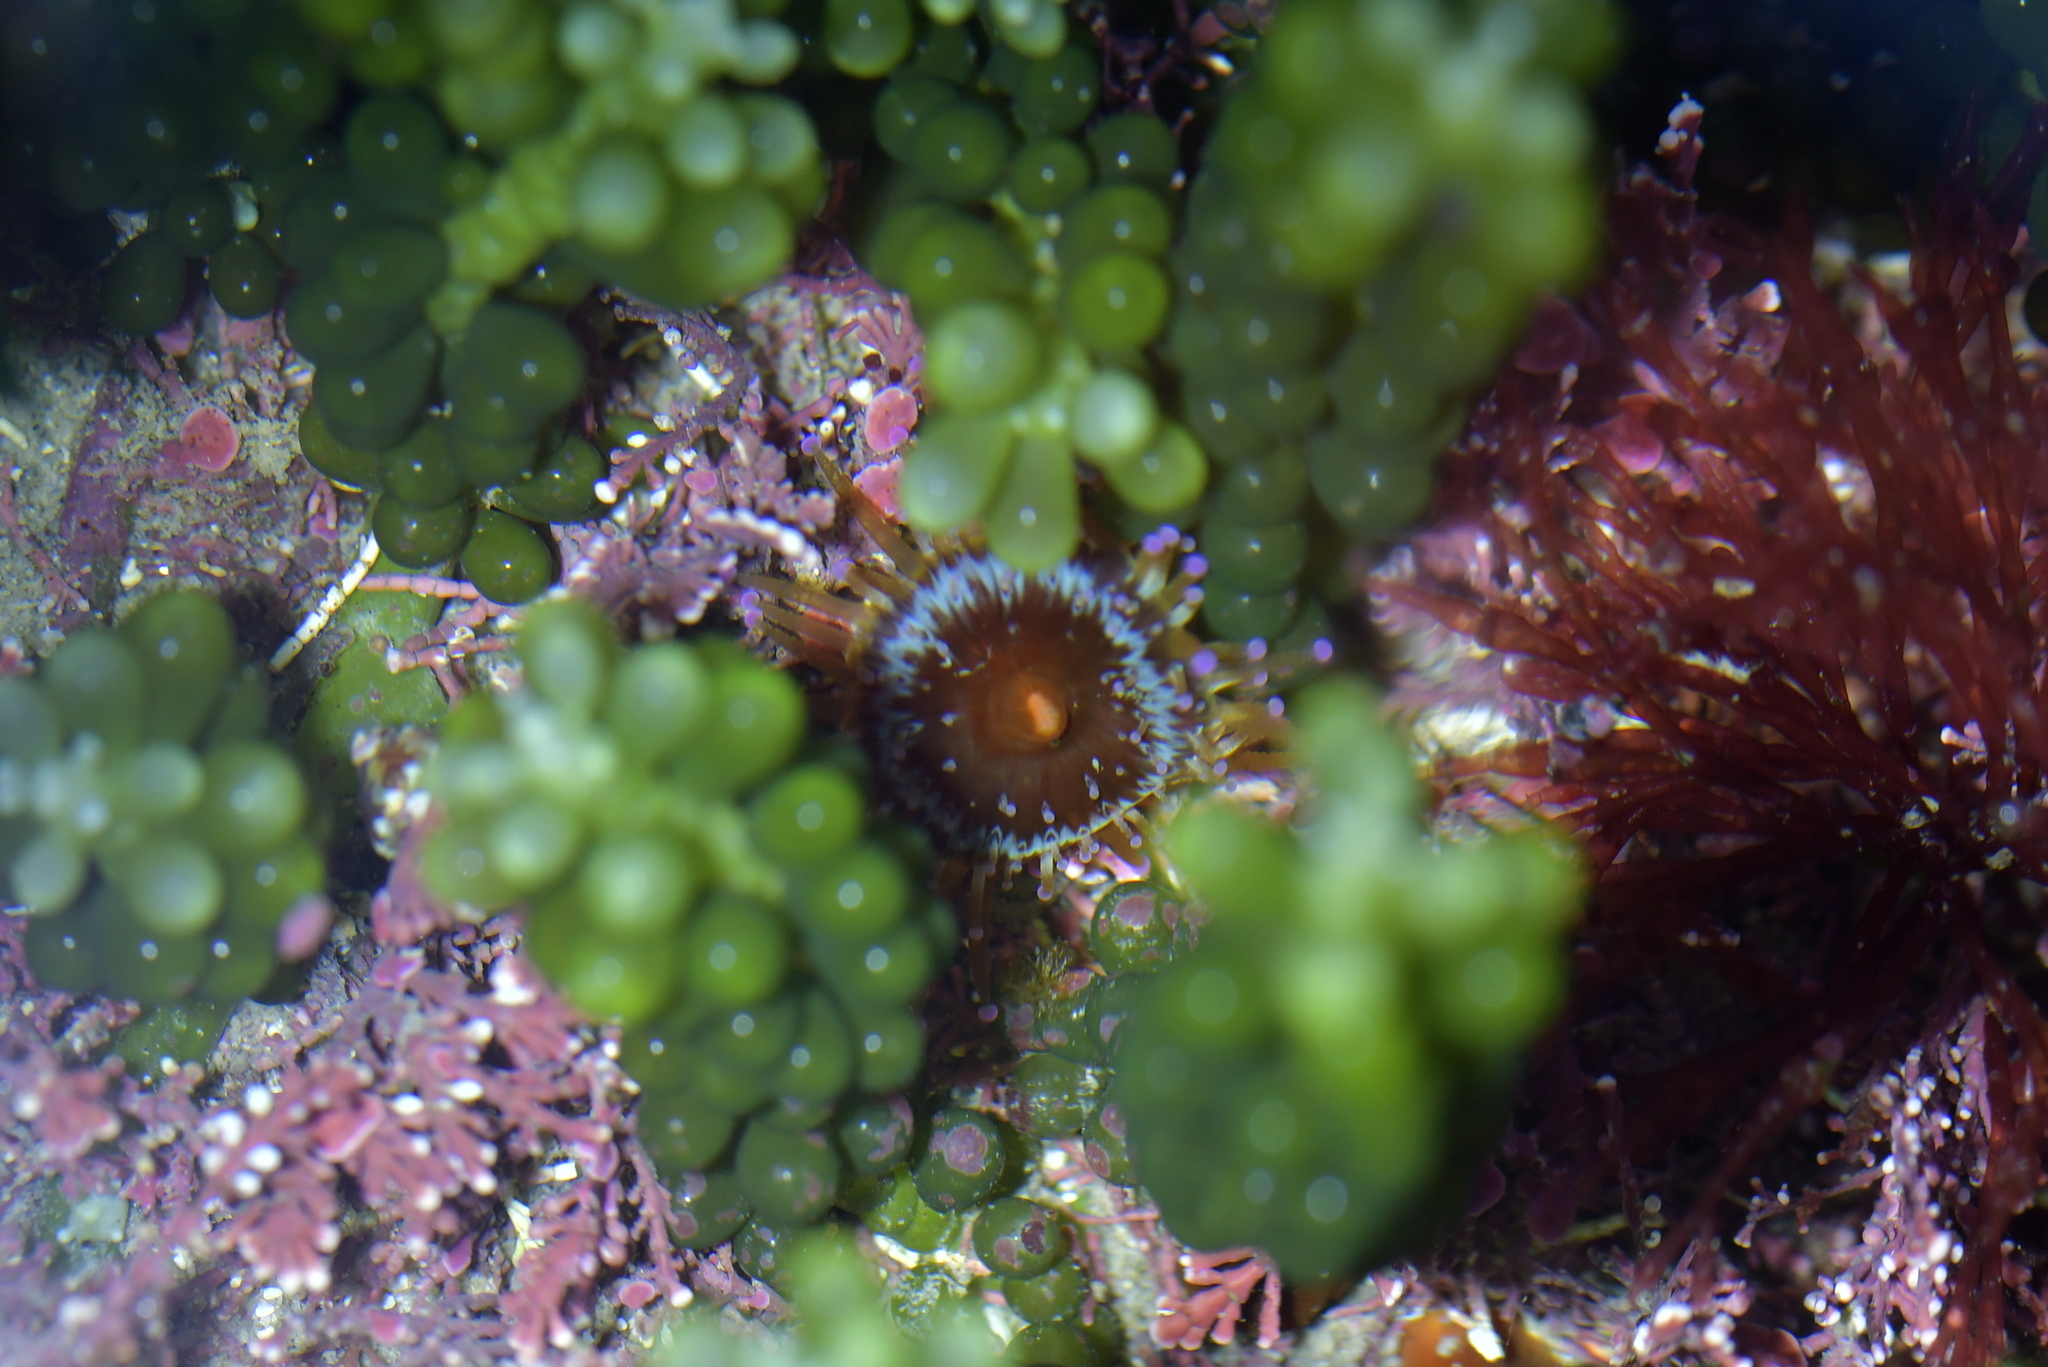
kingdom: Animalia
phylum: Cnidaria
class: Anthozoa
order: Corallimorpharia
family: Corallimorphidae
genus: Corynactis
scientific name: Corynactis australis
